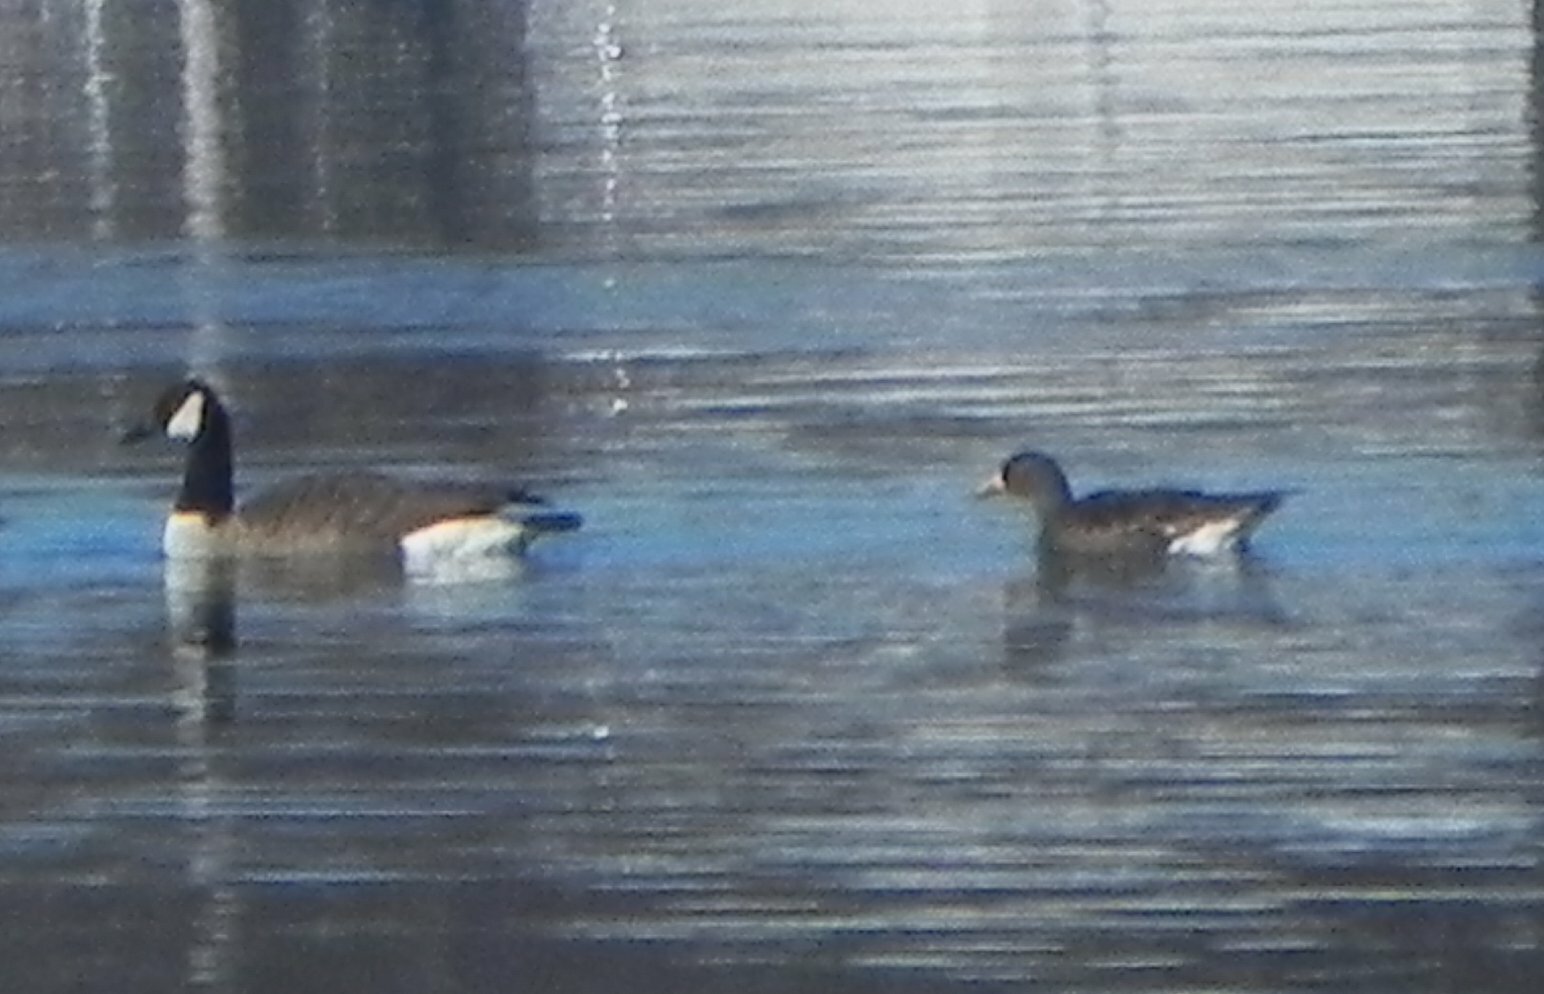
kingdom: Animalia
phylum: Chordata
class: Aves
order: Anseriformes
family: Anatidae
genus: Branta
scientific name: Branta canadensis
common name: Canada goose
